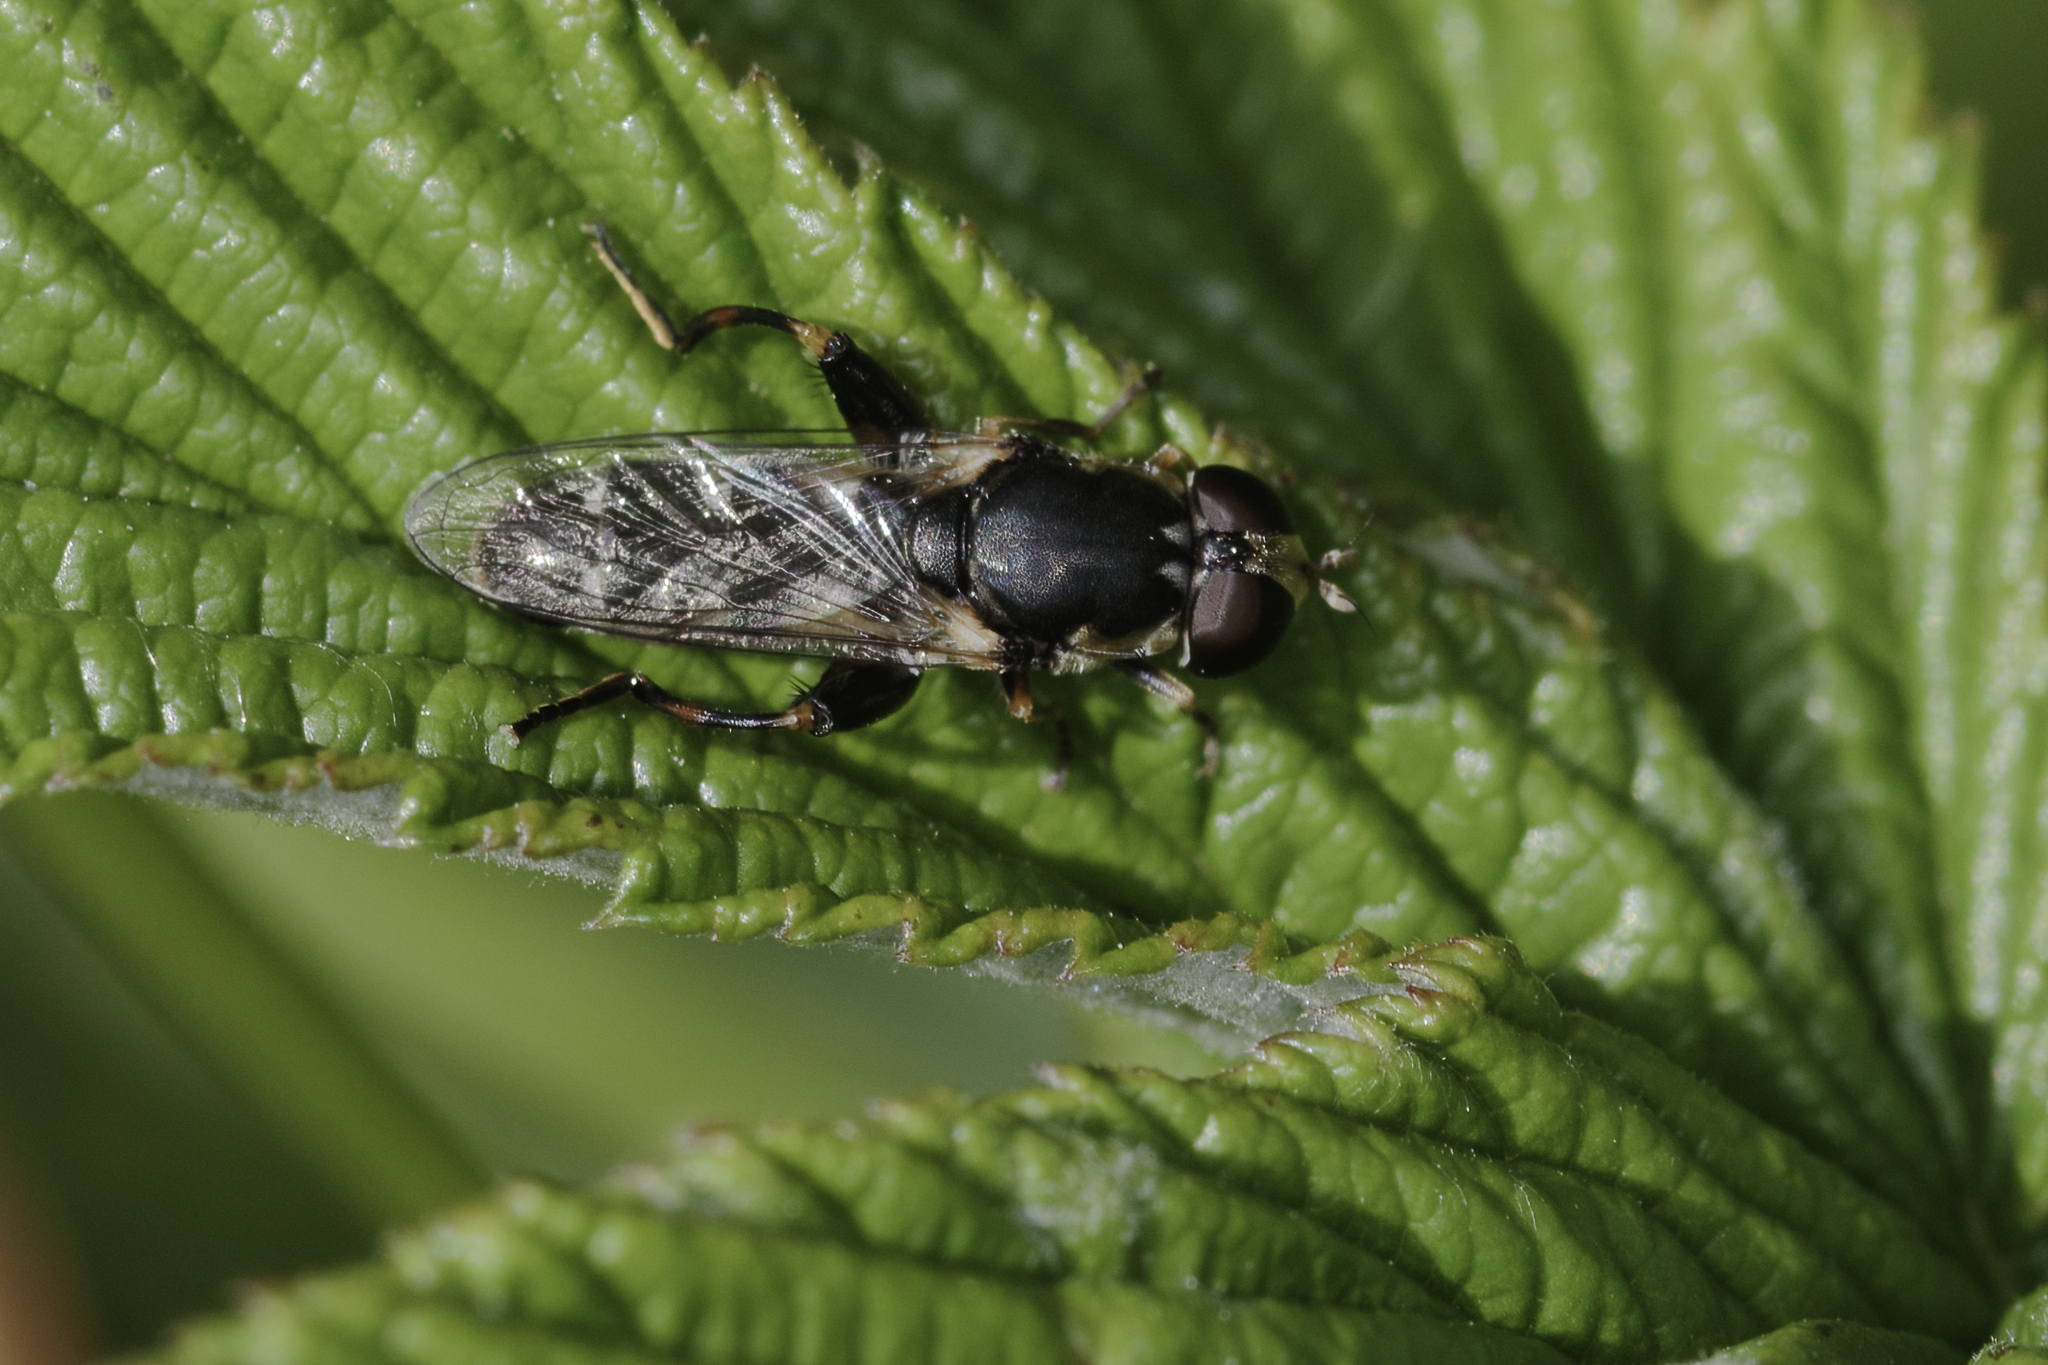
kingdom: Animalia
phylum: Arthropoda
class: Insecta
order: Diptera
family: Syrphidae
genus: Syritta
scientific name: Syritta pipiens
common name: Hover fly
